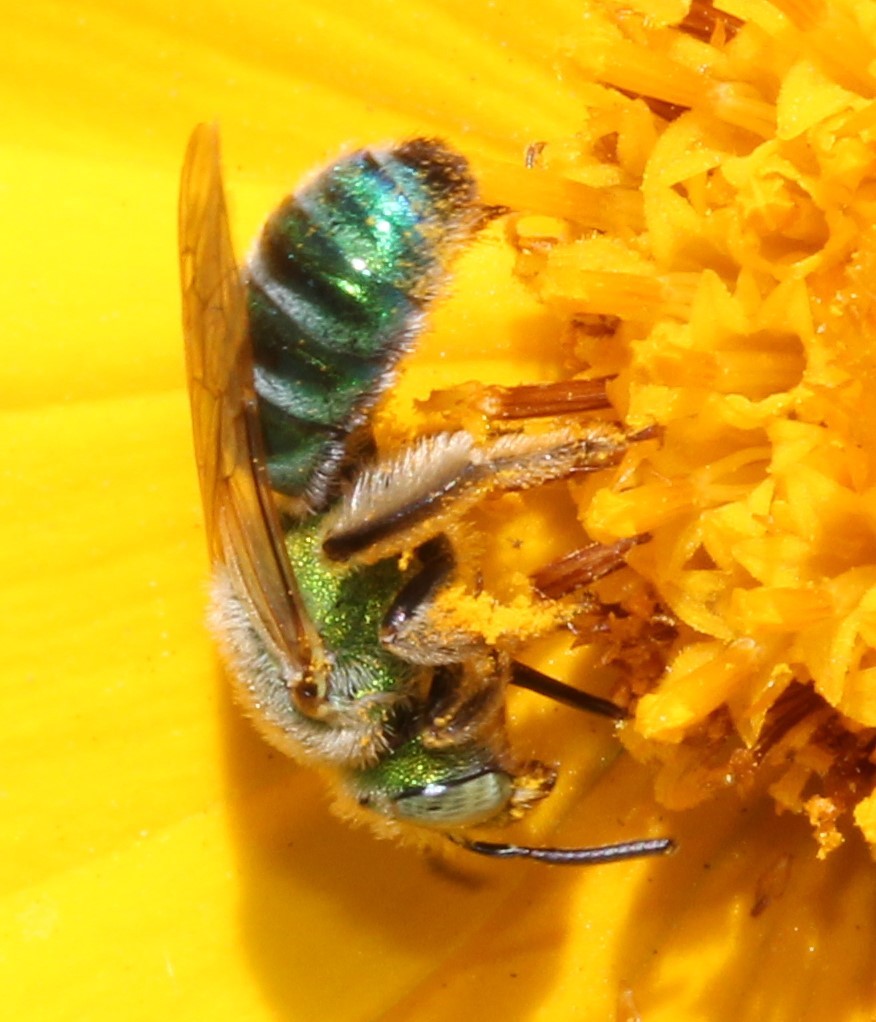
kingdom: Animalia
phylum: Arthropoda
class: Insecta
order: Hymenoptera
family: Halictidae
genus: Agapostemon
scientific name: Agapostemon angelicus
